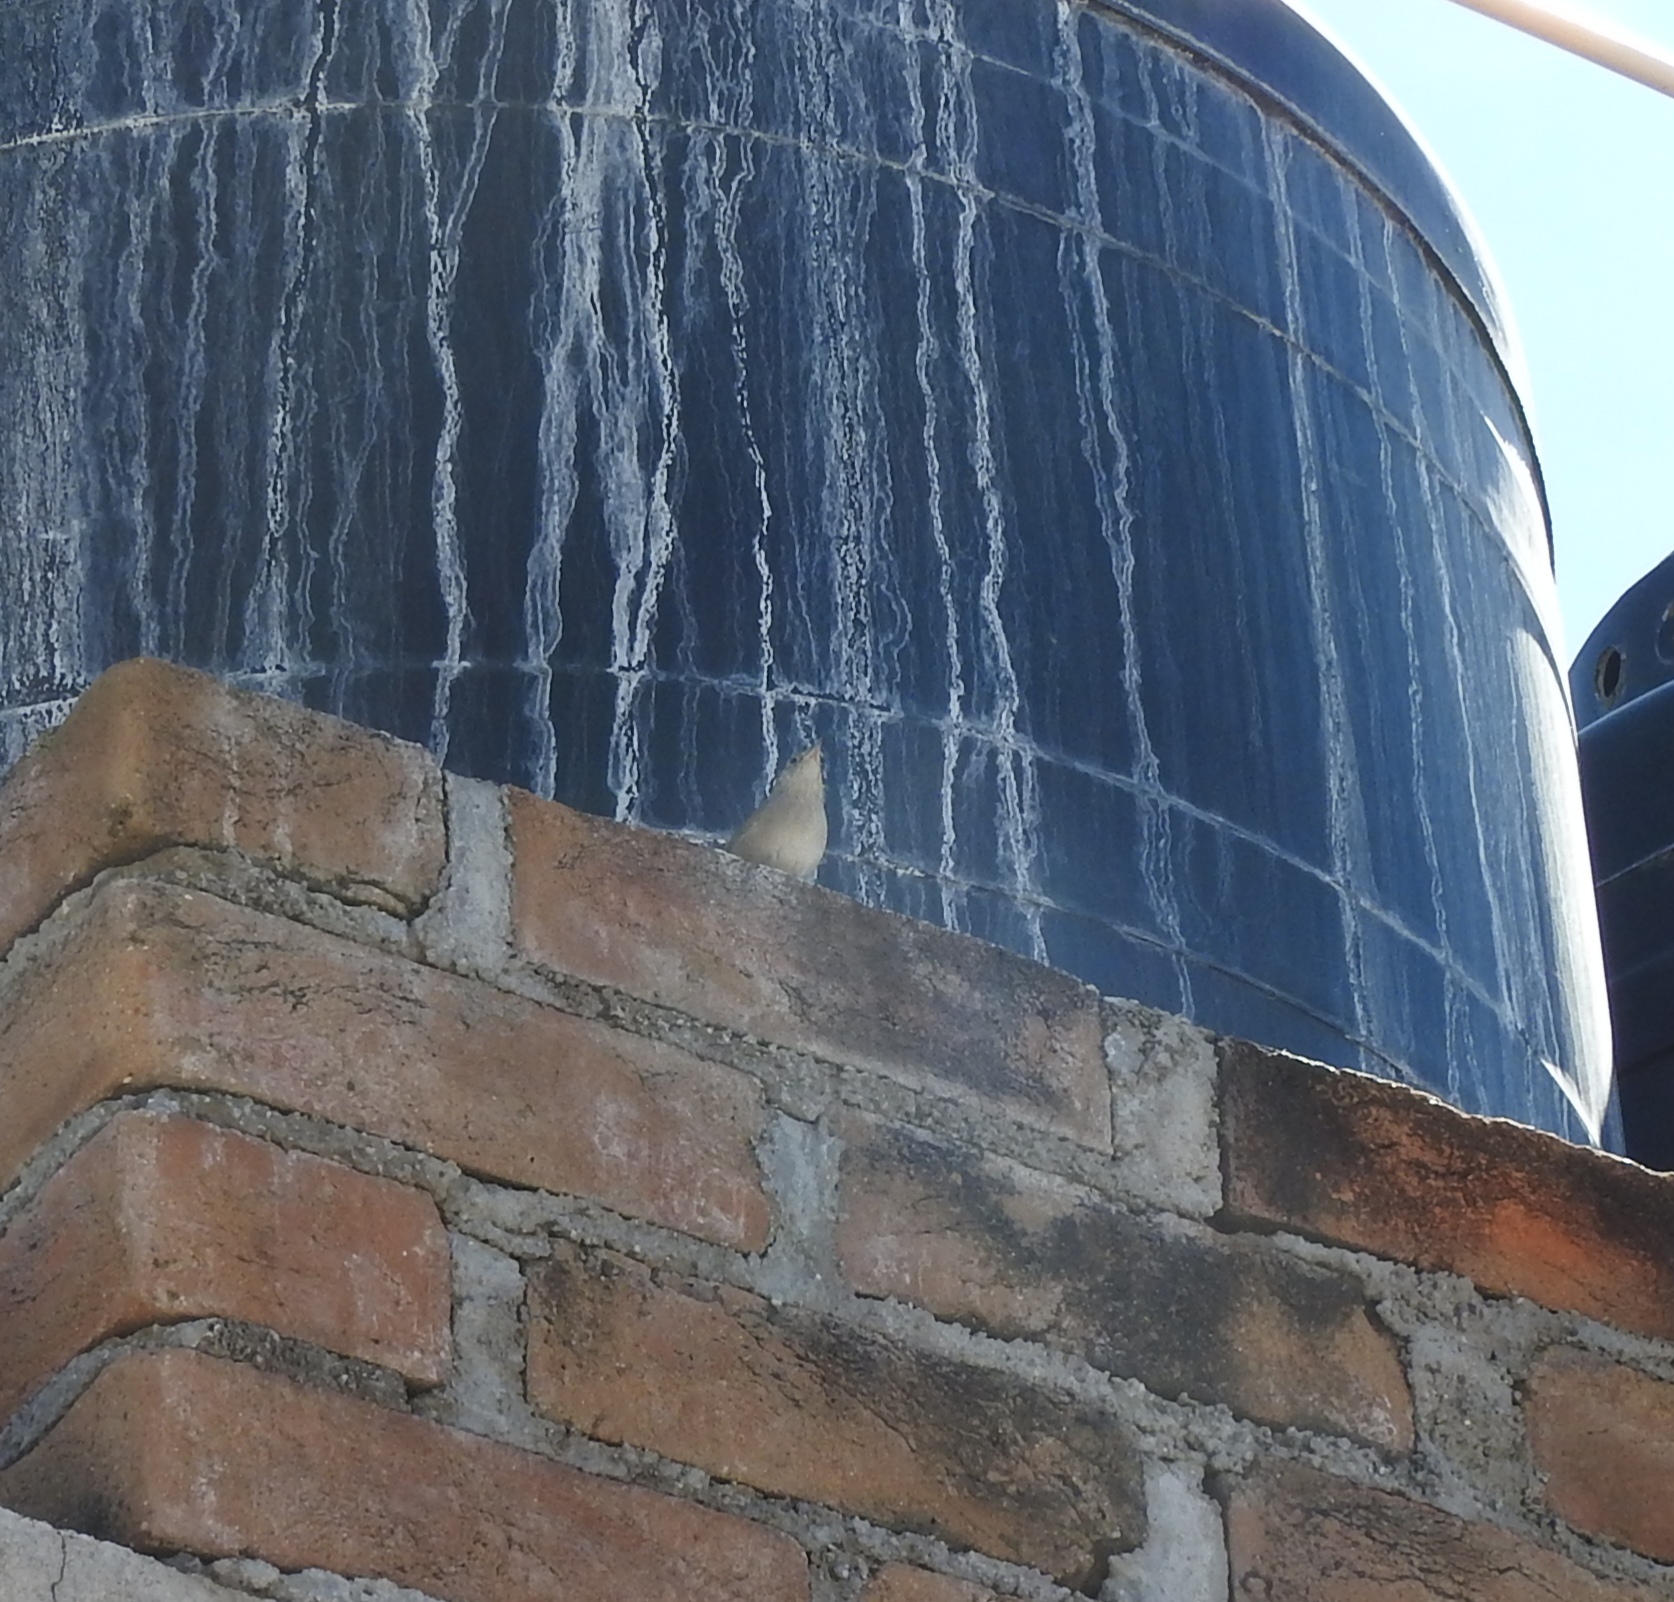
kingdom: Animalia
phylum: Chordata
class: Aves
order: Passeriformes
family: Troglodytidae
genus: Thryomanes
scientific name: Thryomanes bewickii
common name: Bewick's wren
